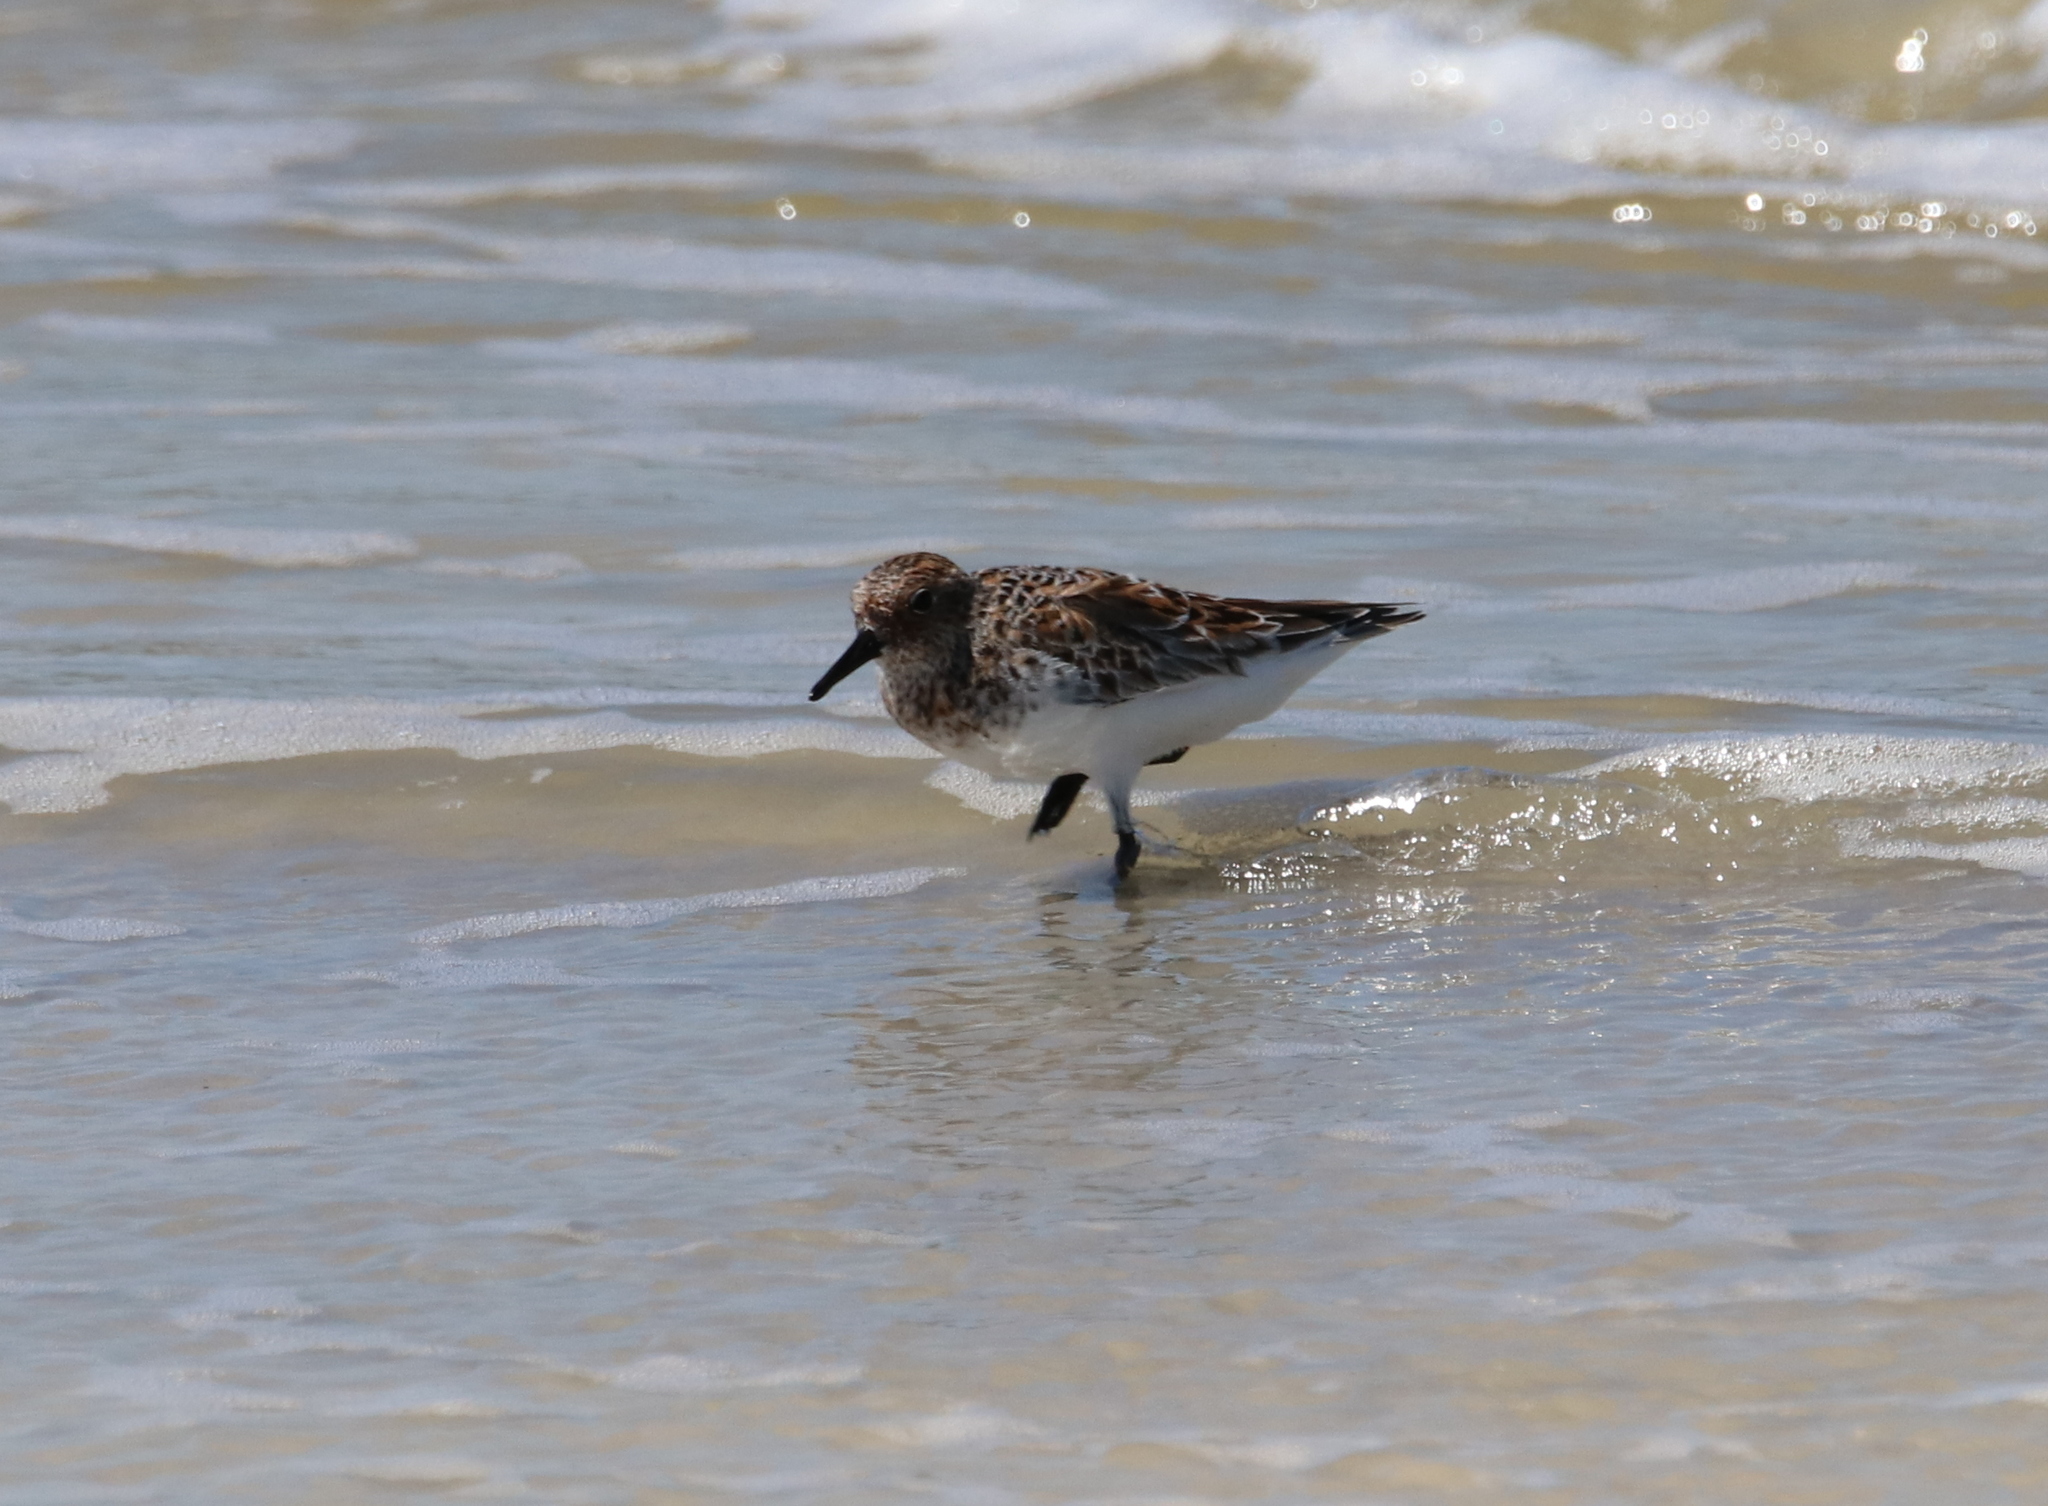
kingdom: Animalia
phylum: Chordata
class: Aves
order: Charadriiformes
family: Scolopacidae
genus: Calidris
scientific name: Calidris alba
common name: Sanderling
